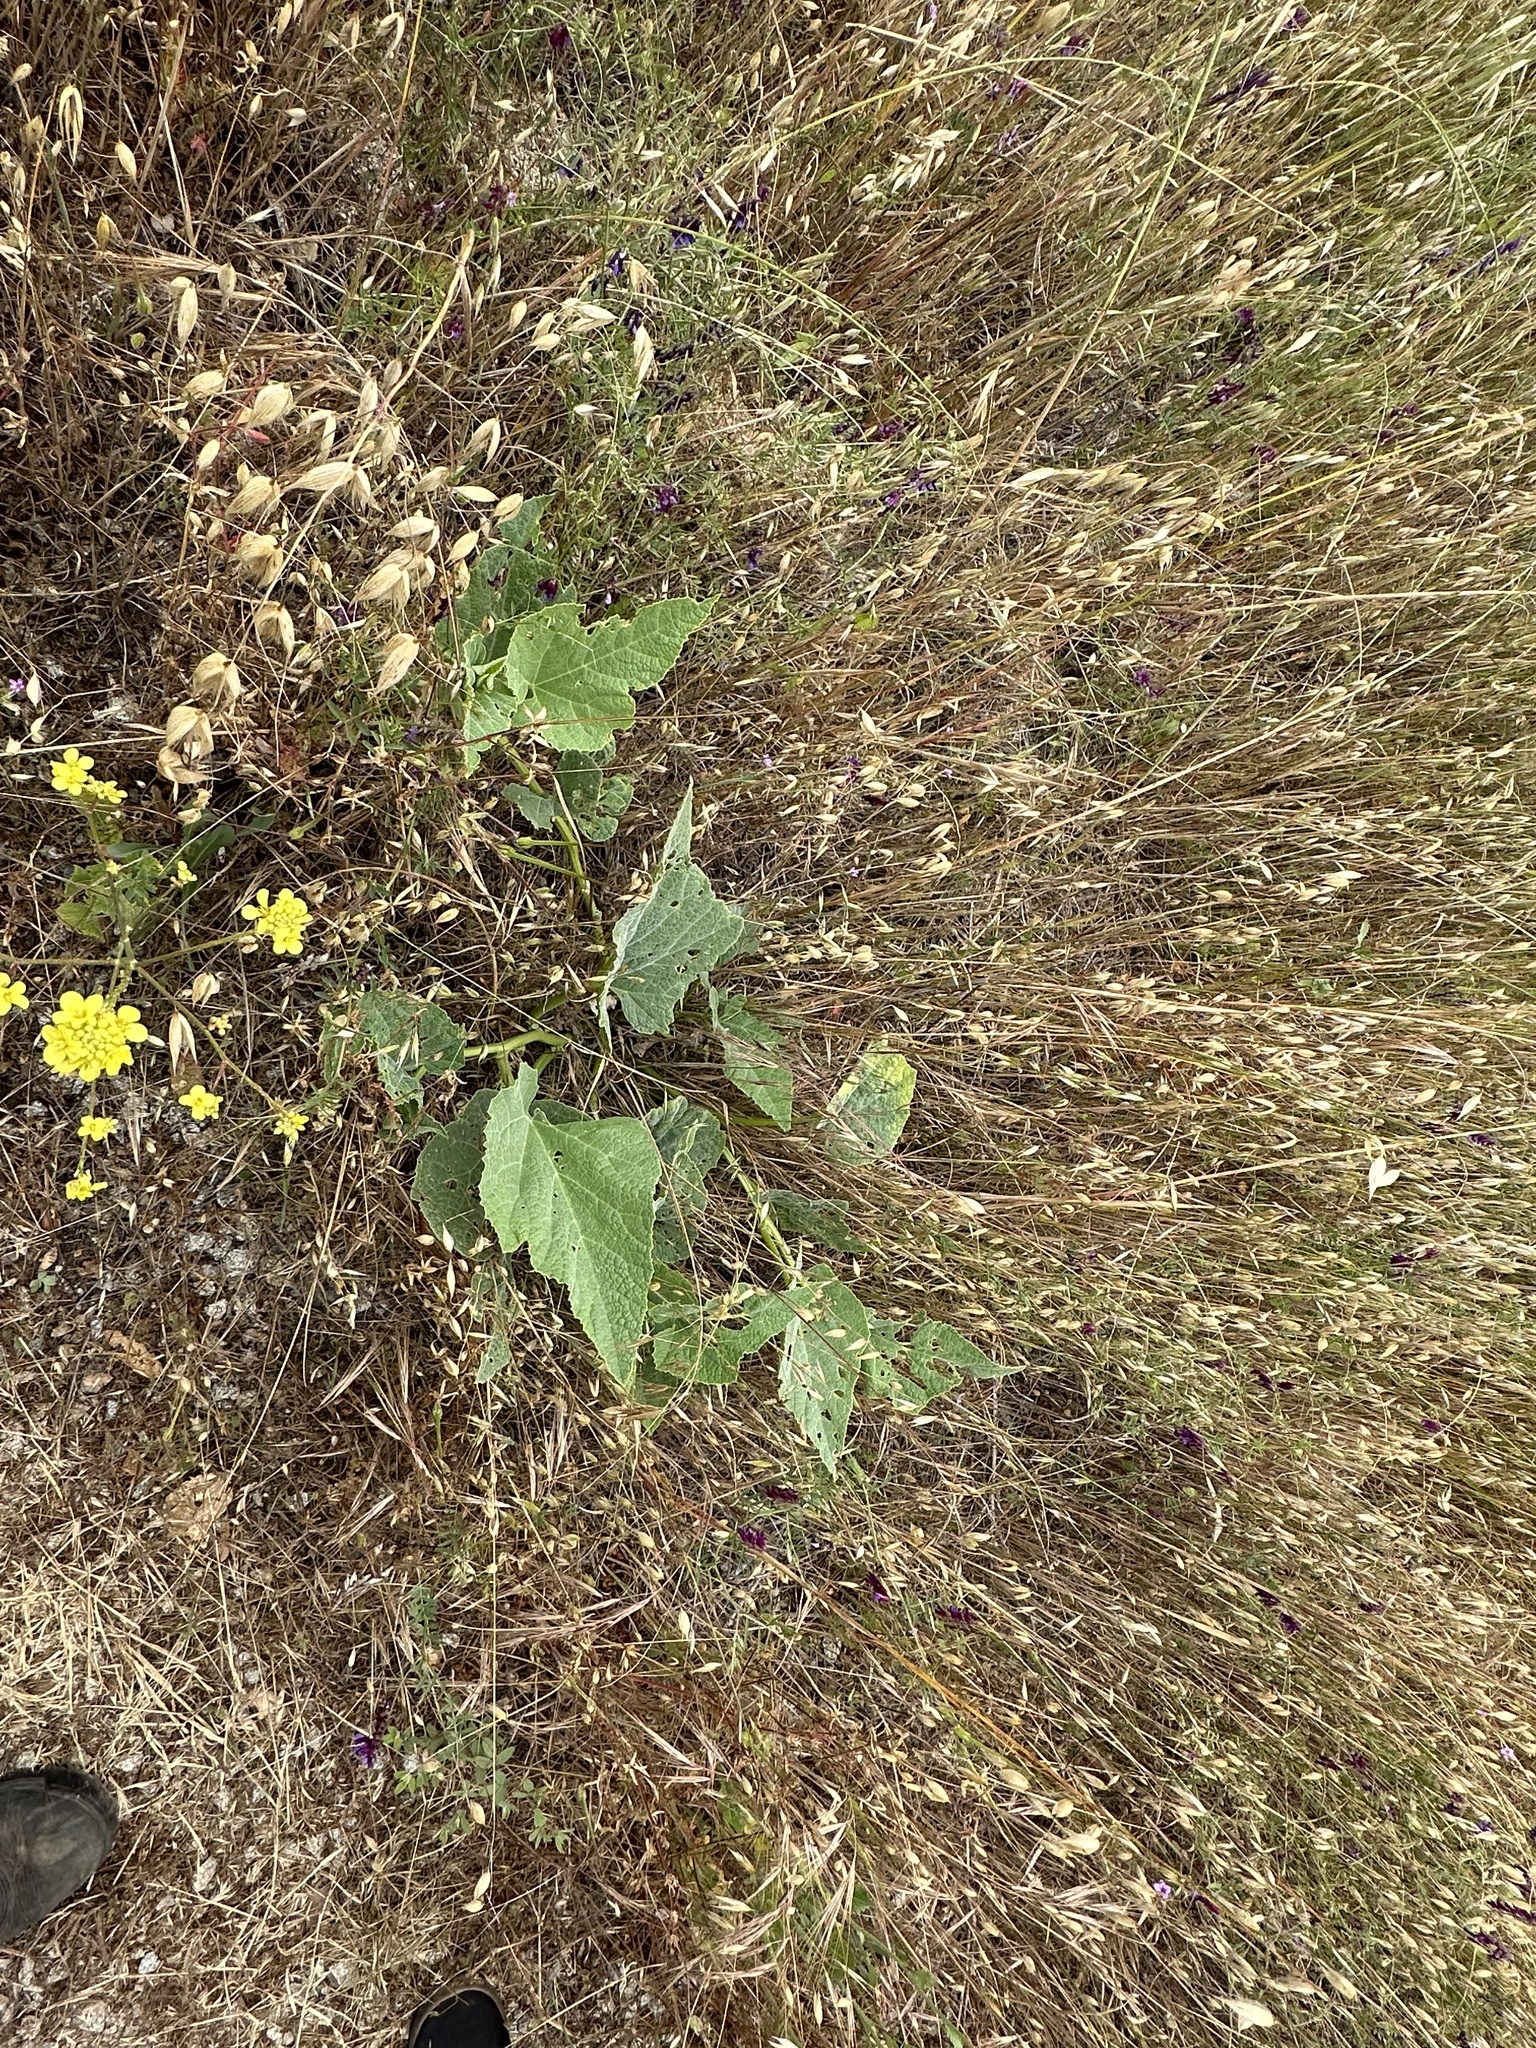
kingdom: Plantae
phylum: Tracheophyta
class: Magnoliopsida
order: Cucurbitales
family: Cucurbitaceae
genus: Cucurbita
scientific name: Cucurbita foetidissima
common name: Buffalo gourd
